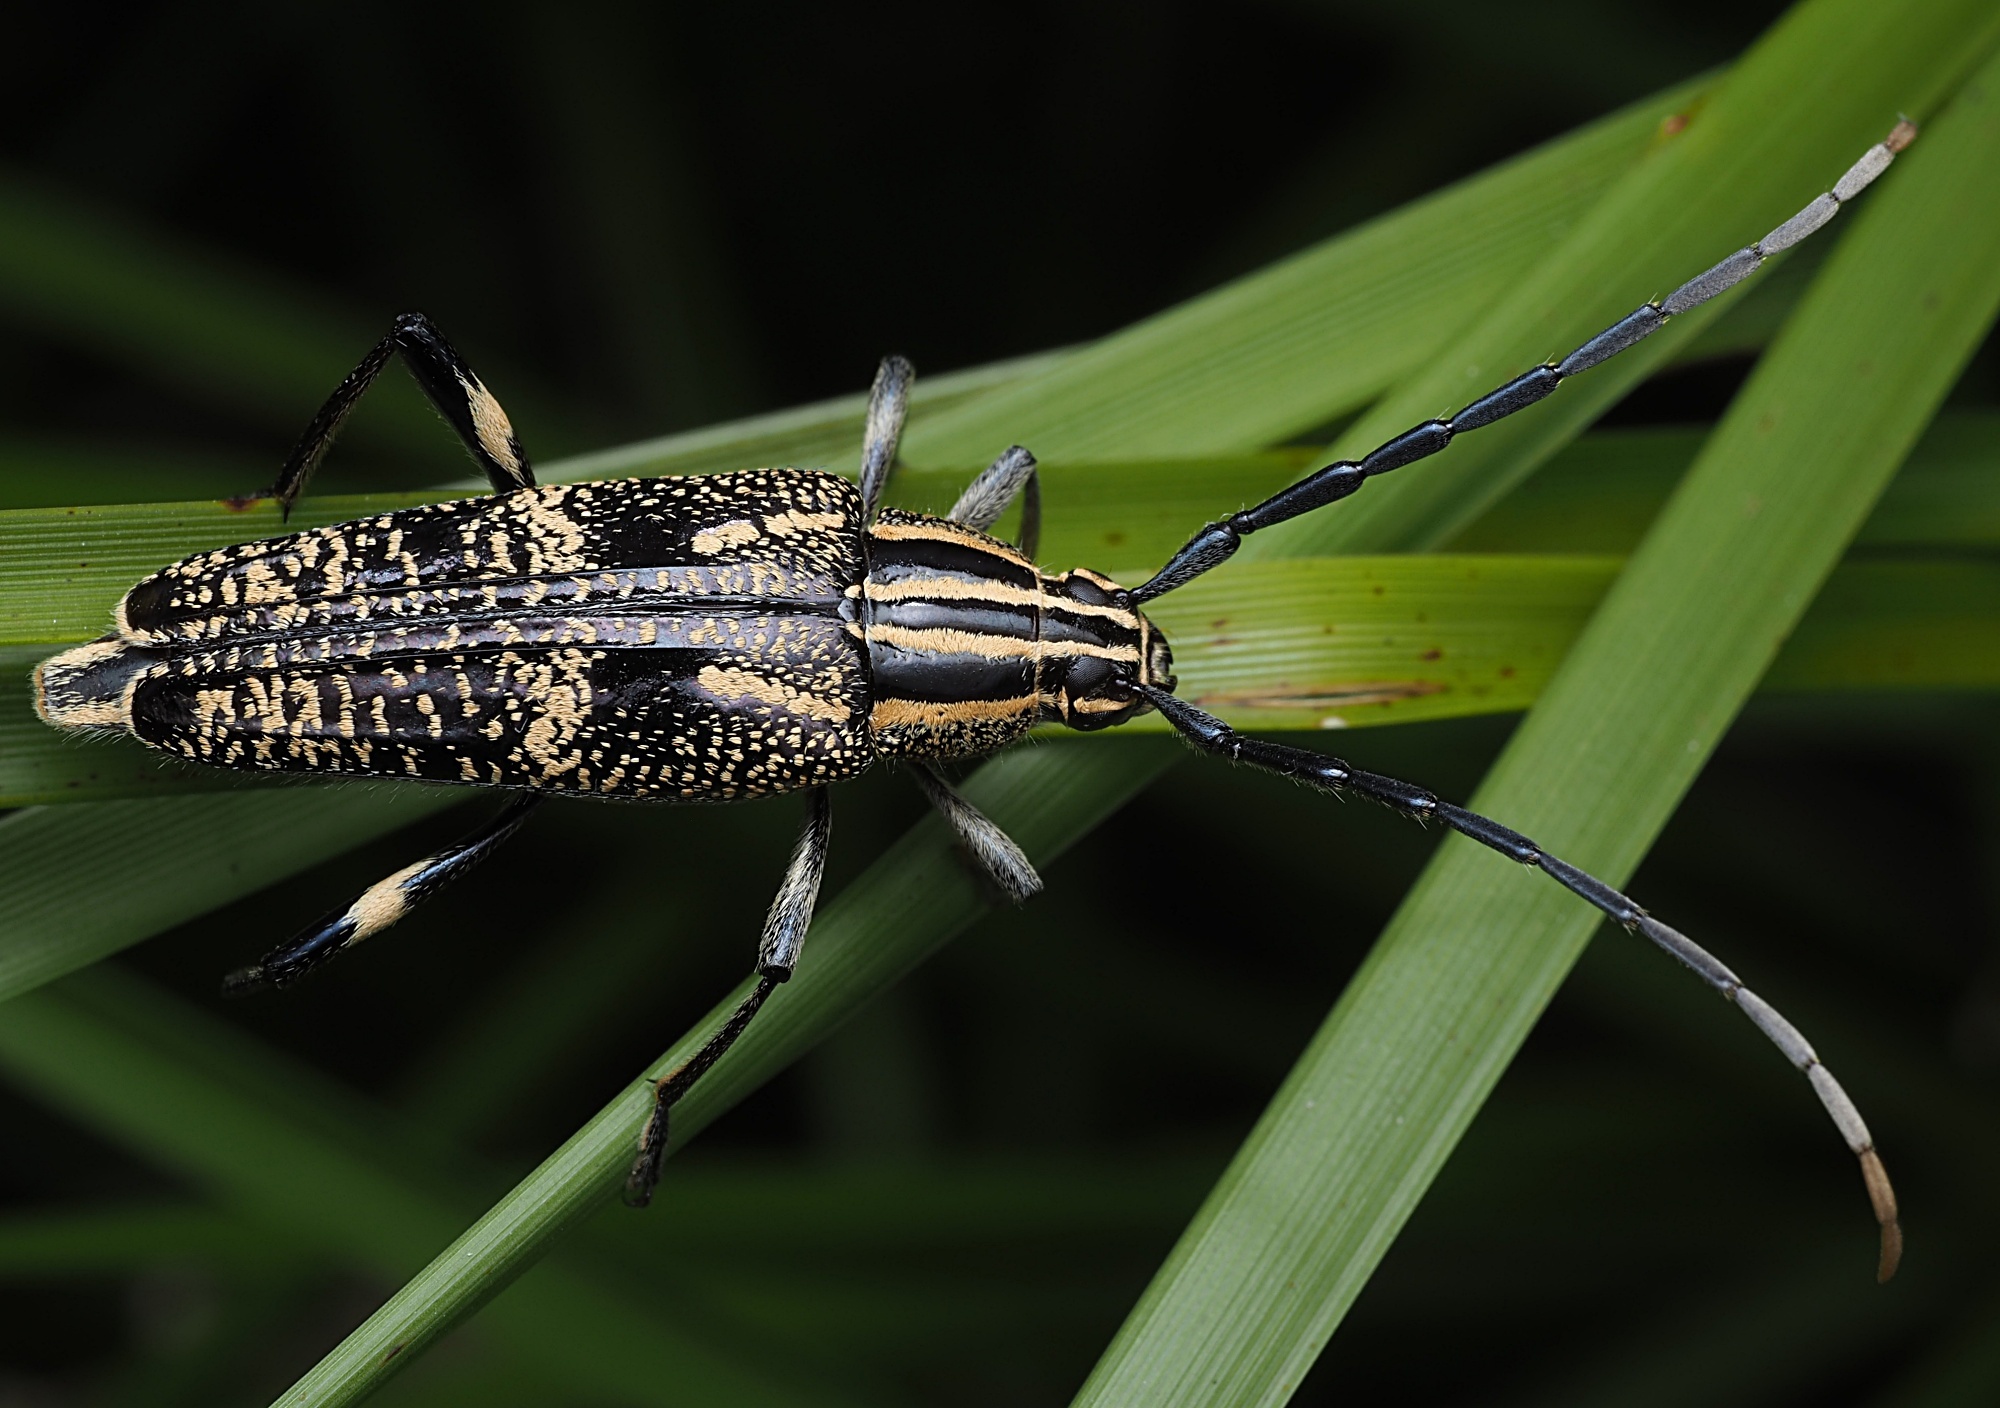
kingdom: Animalia
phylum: Arthropoda
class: Insecta
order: Coleoptera
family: Cerambycidae
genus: Coptomma
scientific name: Coptomma variegatum
